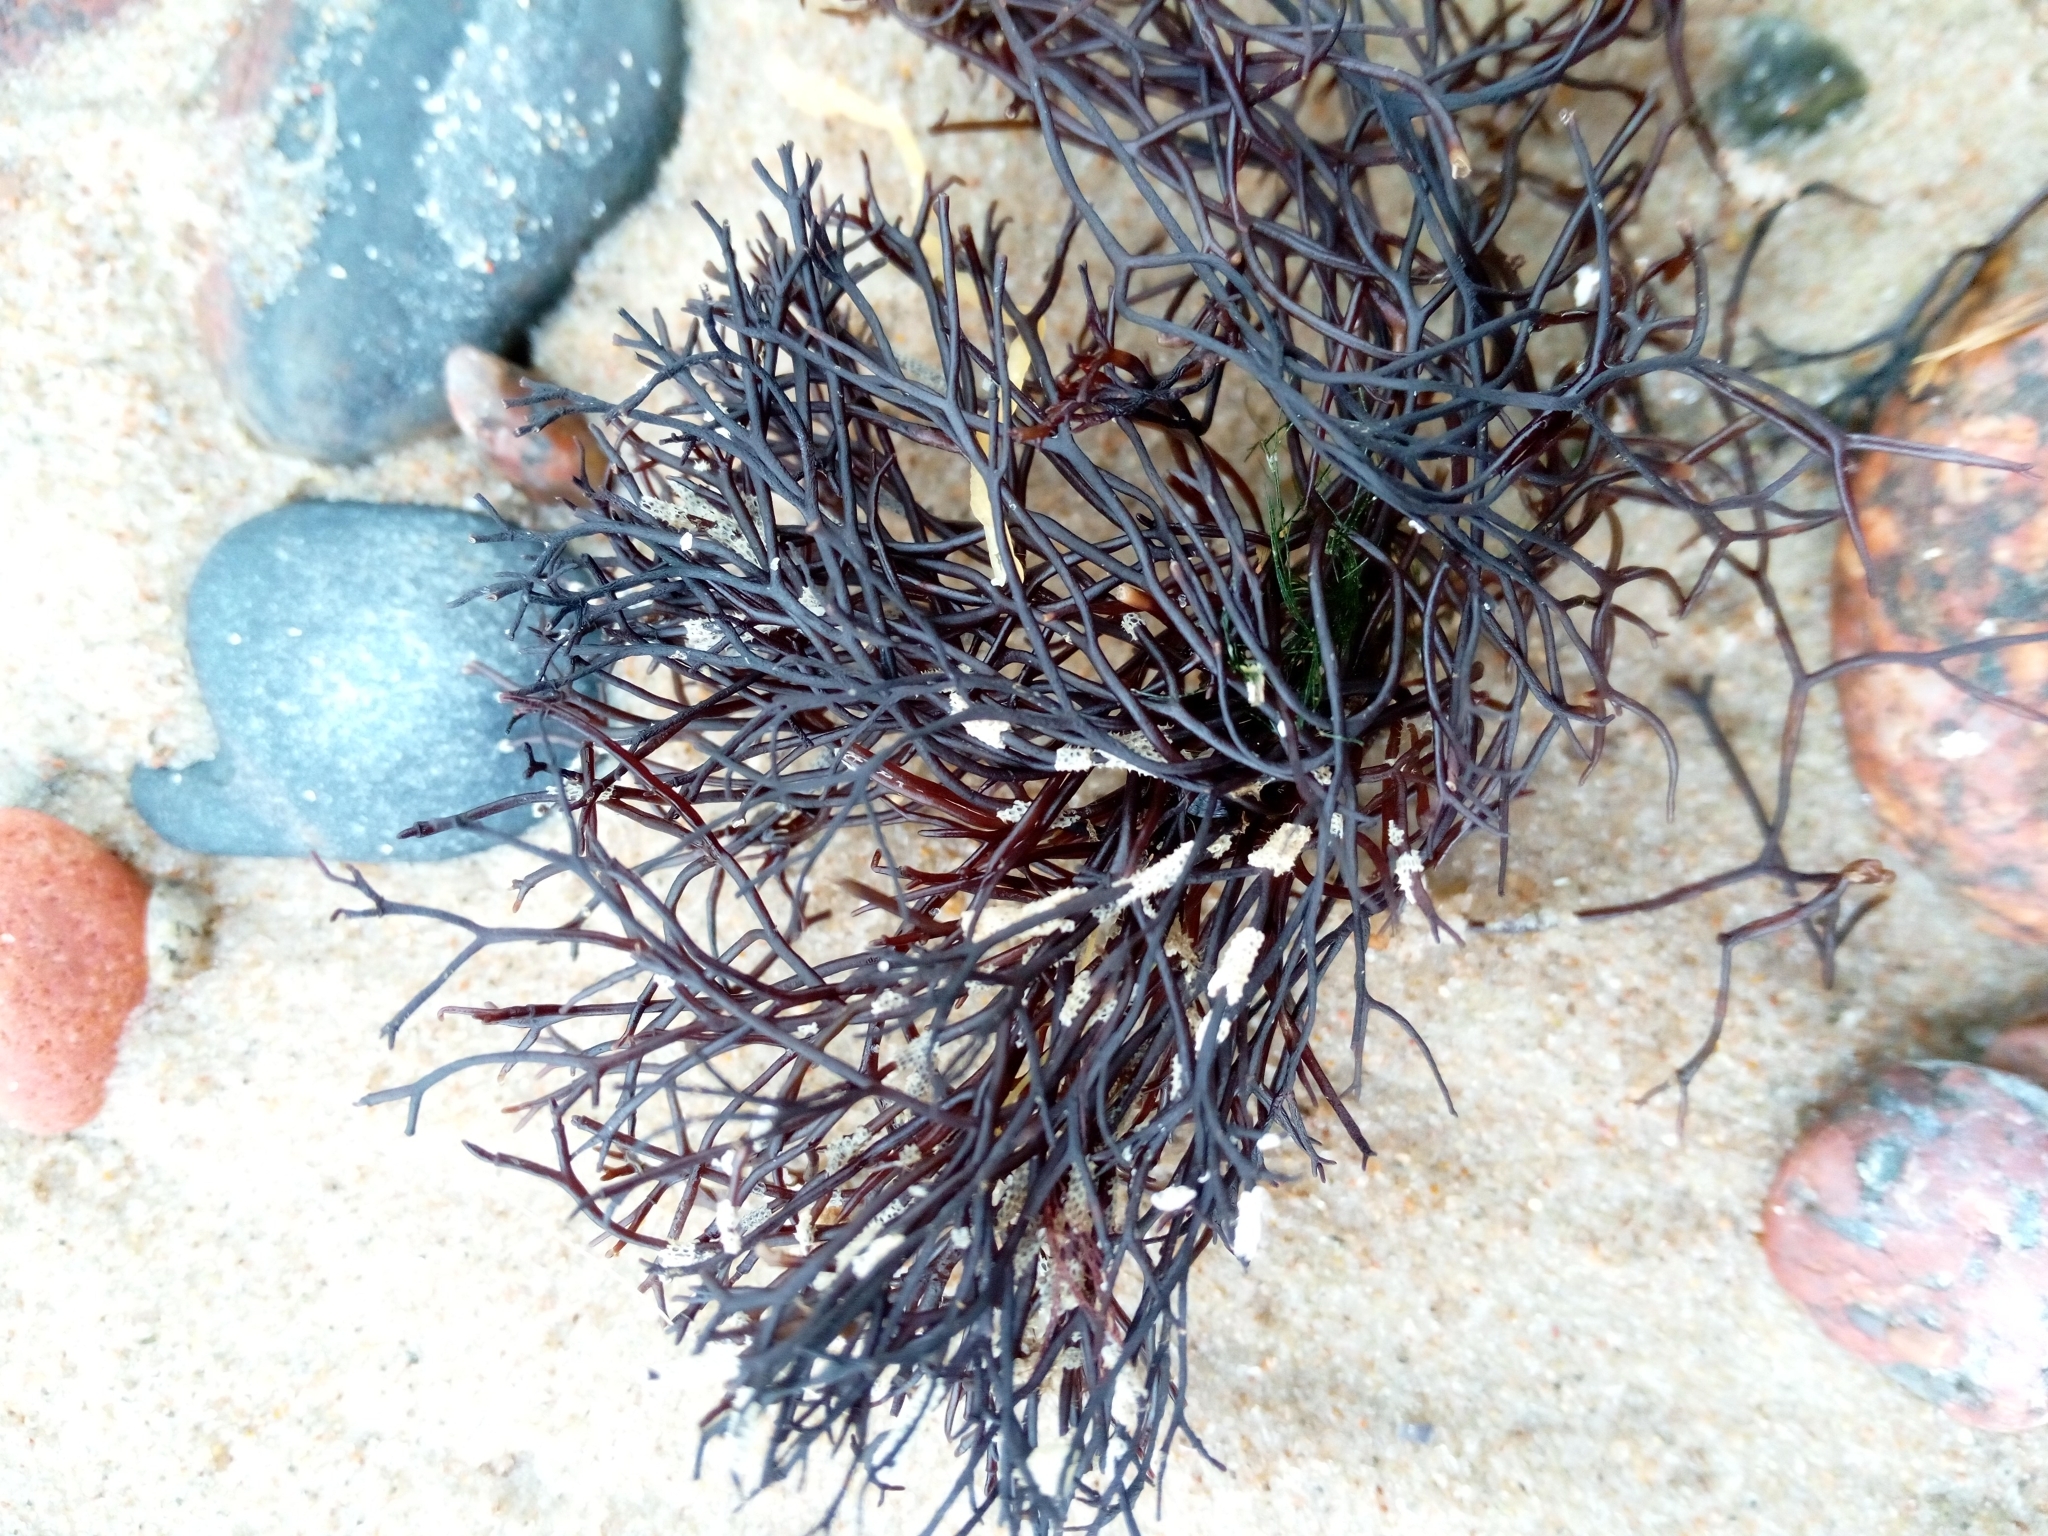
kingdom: Plantae
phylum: Rhodophyta
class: Florideophyceae
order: Gigartinales
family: Furcellariaceae
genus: Furcellaria
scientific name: Furcellaria lumbricalis
